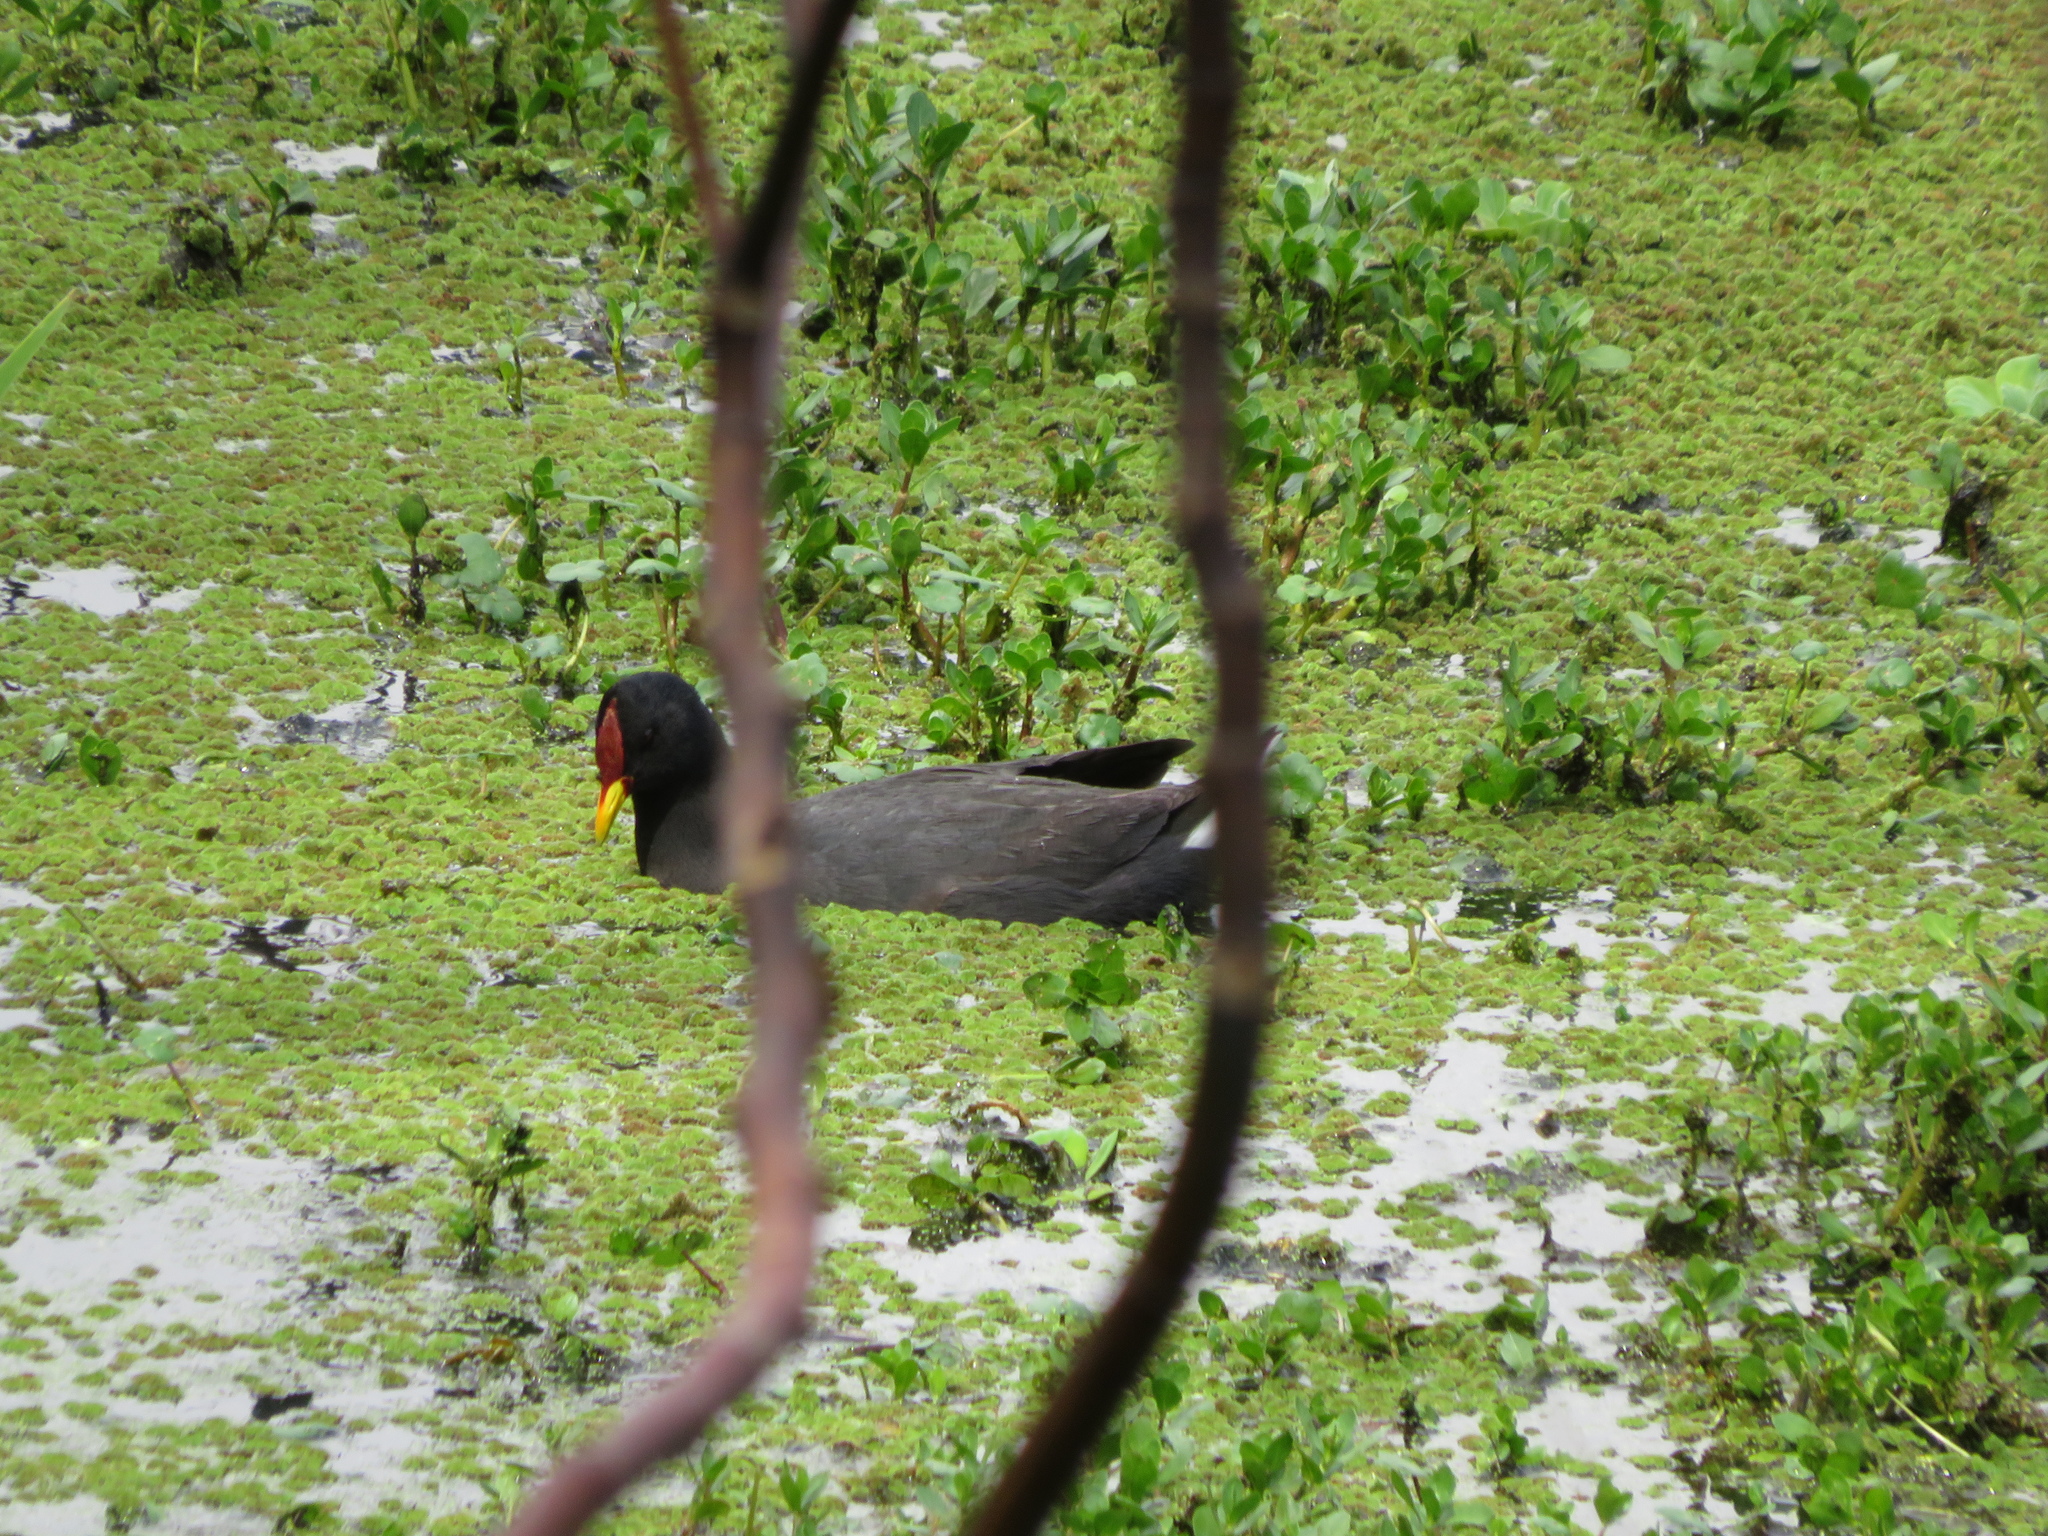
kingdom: Animalia
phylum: Chordata
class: Aves
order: Gruiformes
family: Rallidae
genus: Fulica
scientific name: Fulica rufifrons
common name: Red-fronted coot
